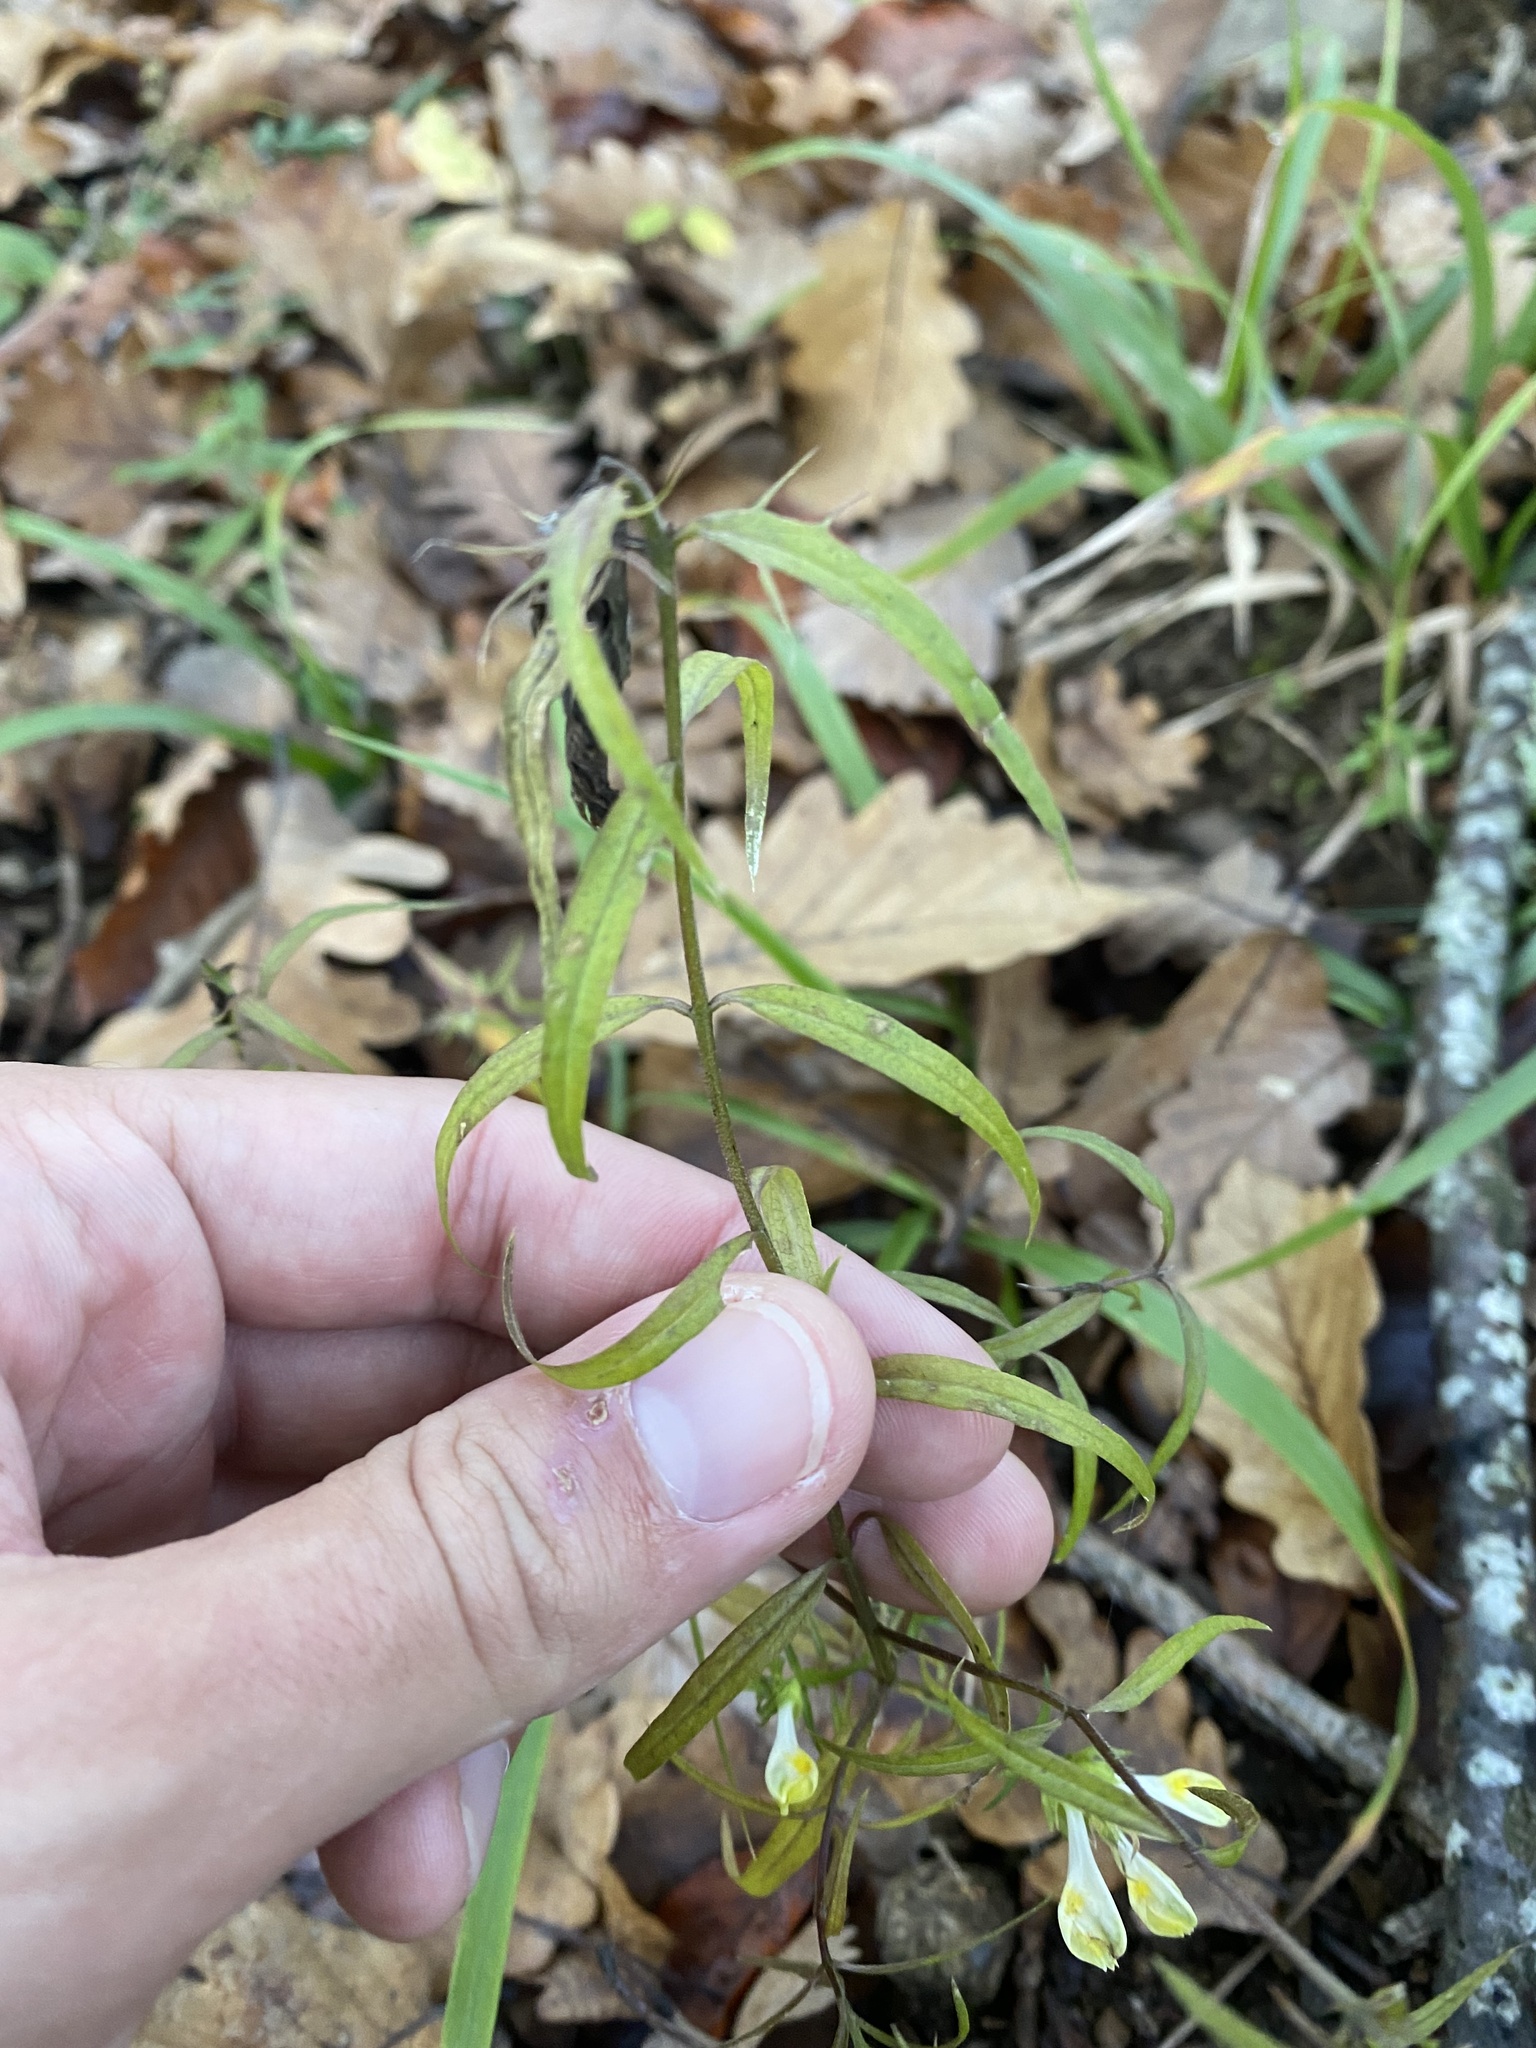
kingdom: Plantae
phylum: Tracheophyta
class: Magnoliopsida
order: Lamiales
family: Orobanchaceae
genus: Melampyrum
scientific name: Melampyrum pratense
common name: Common cow-wheat
